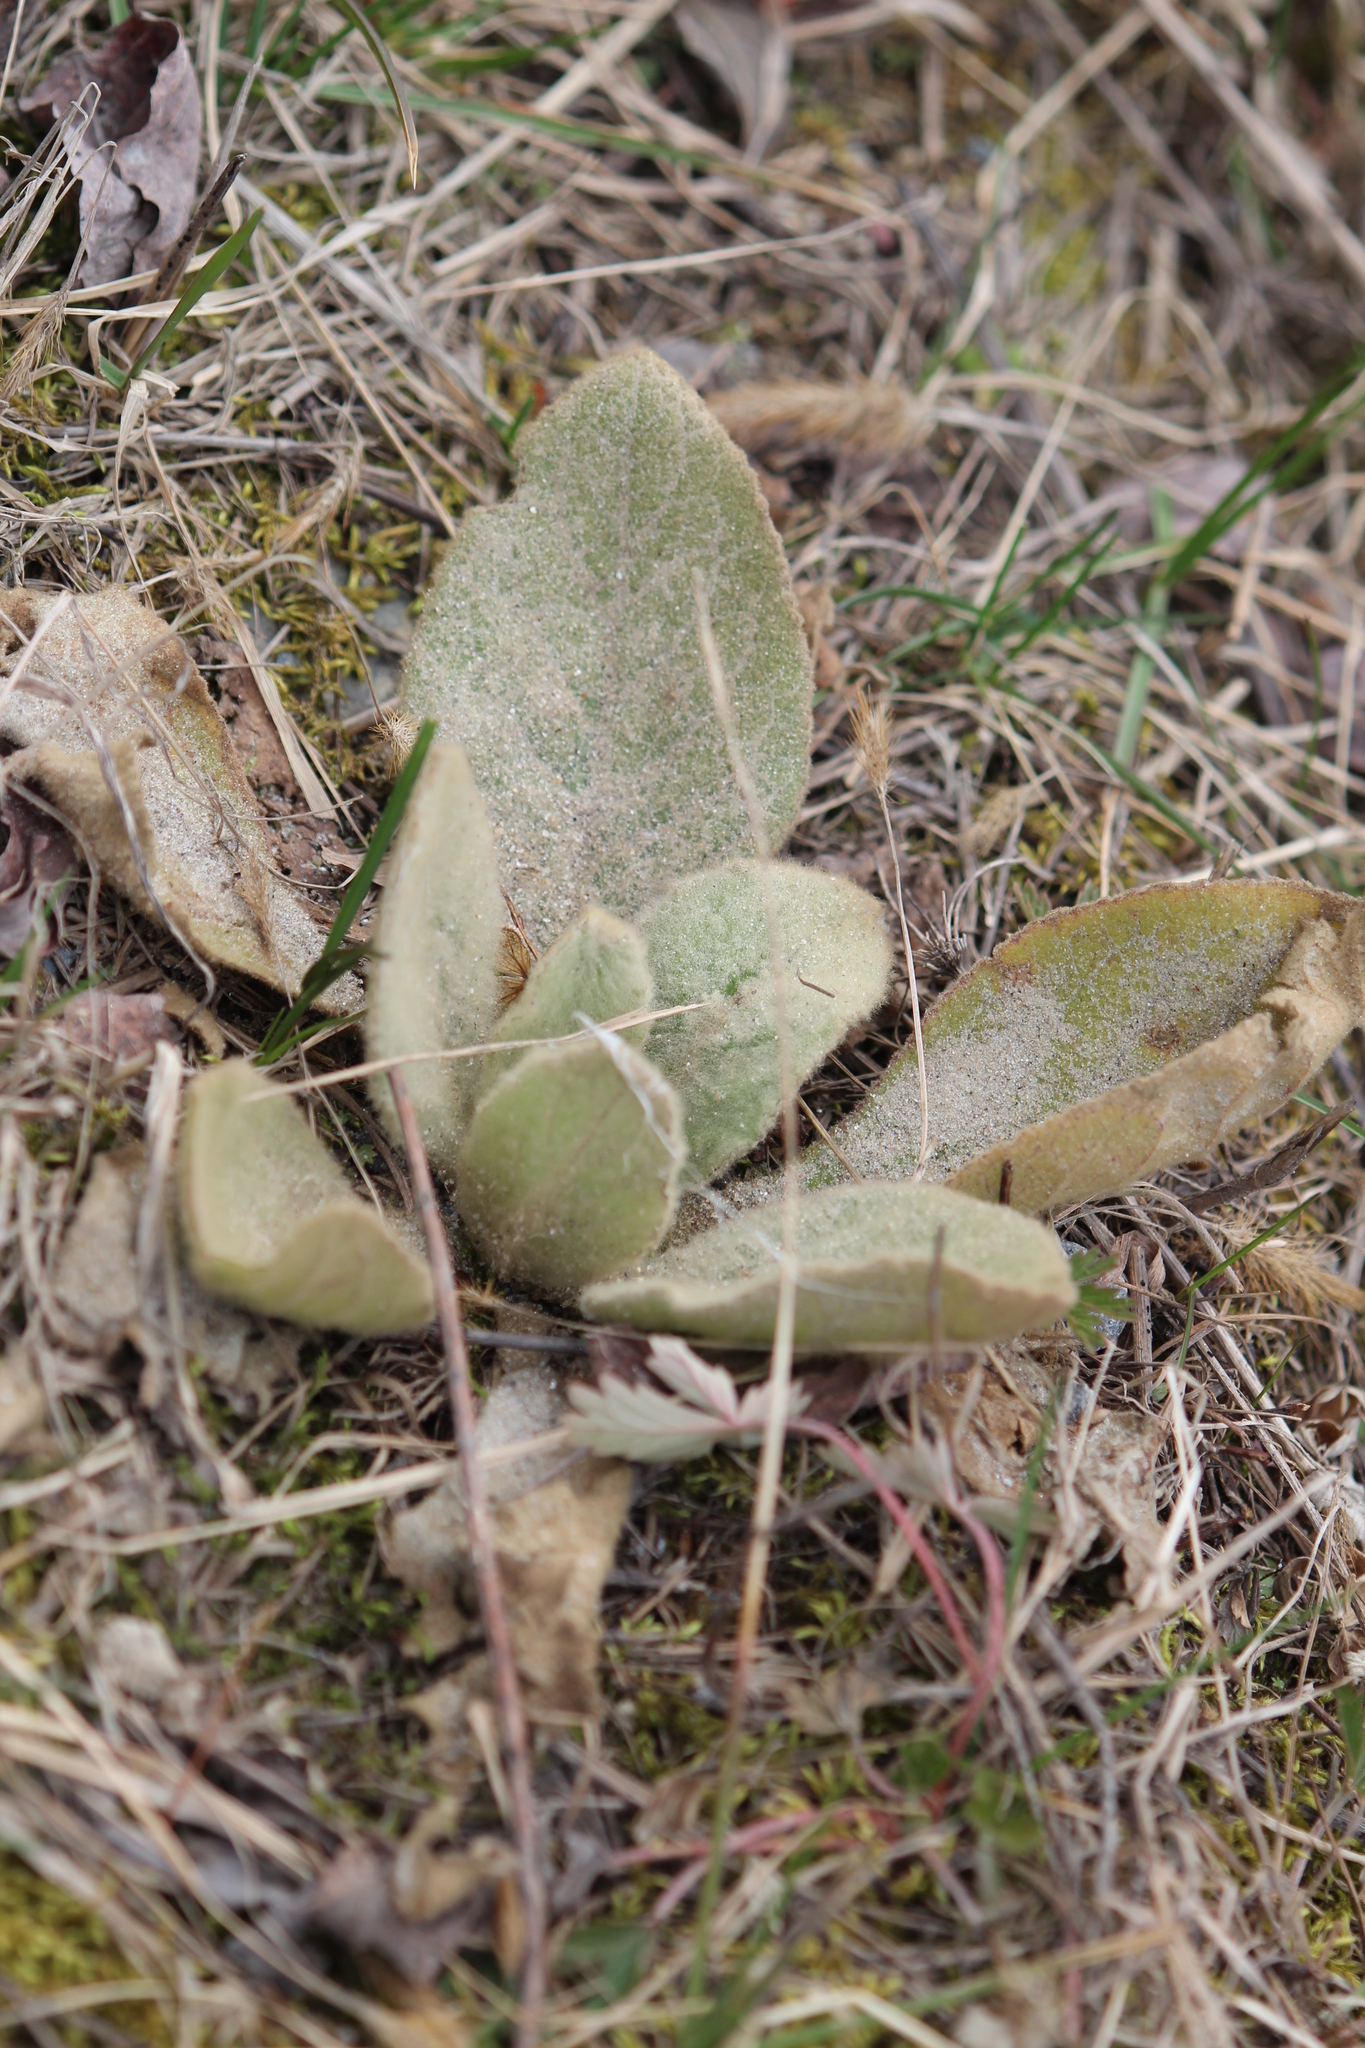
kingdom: Plantae
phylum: Tracheophyta
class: Magnoliopsida
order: Lamiales
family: Scrophulariaceae
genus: Verbascum
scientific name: Verbascum thapsus
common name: Common mullein
